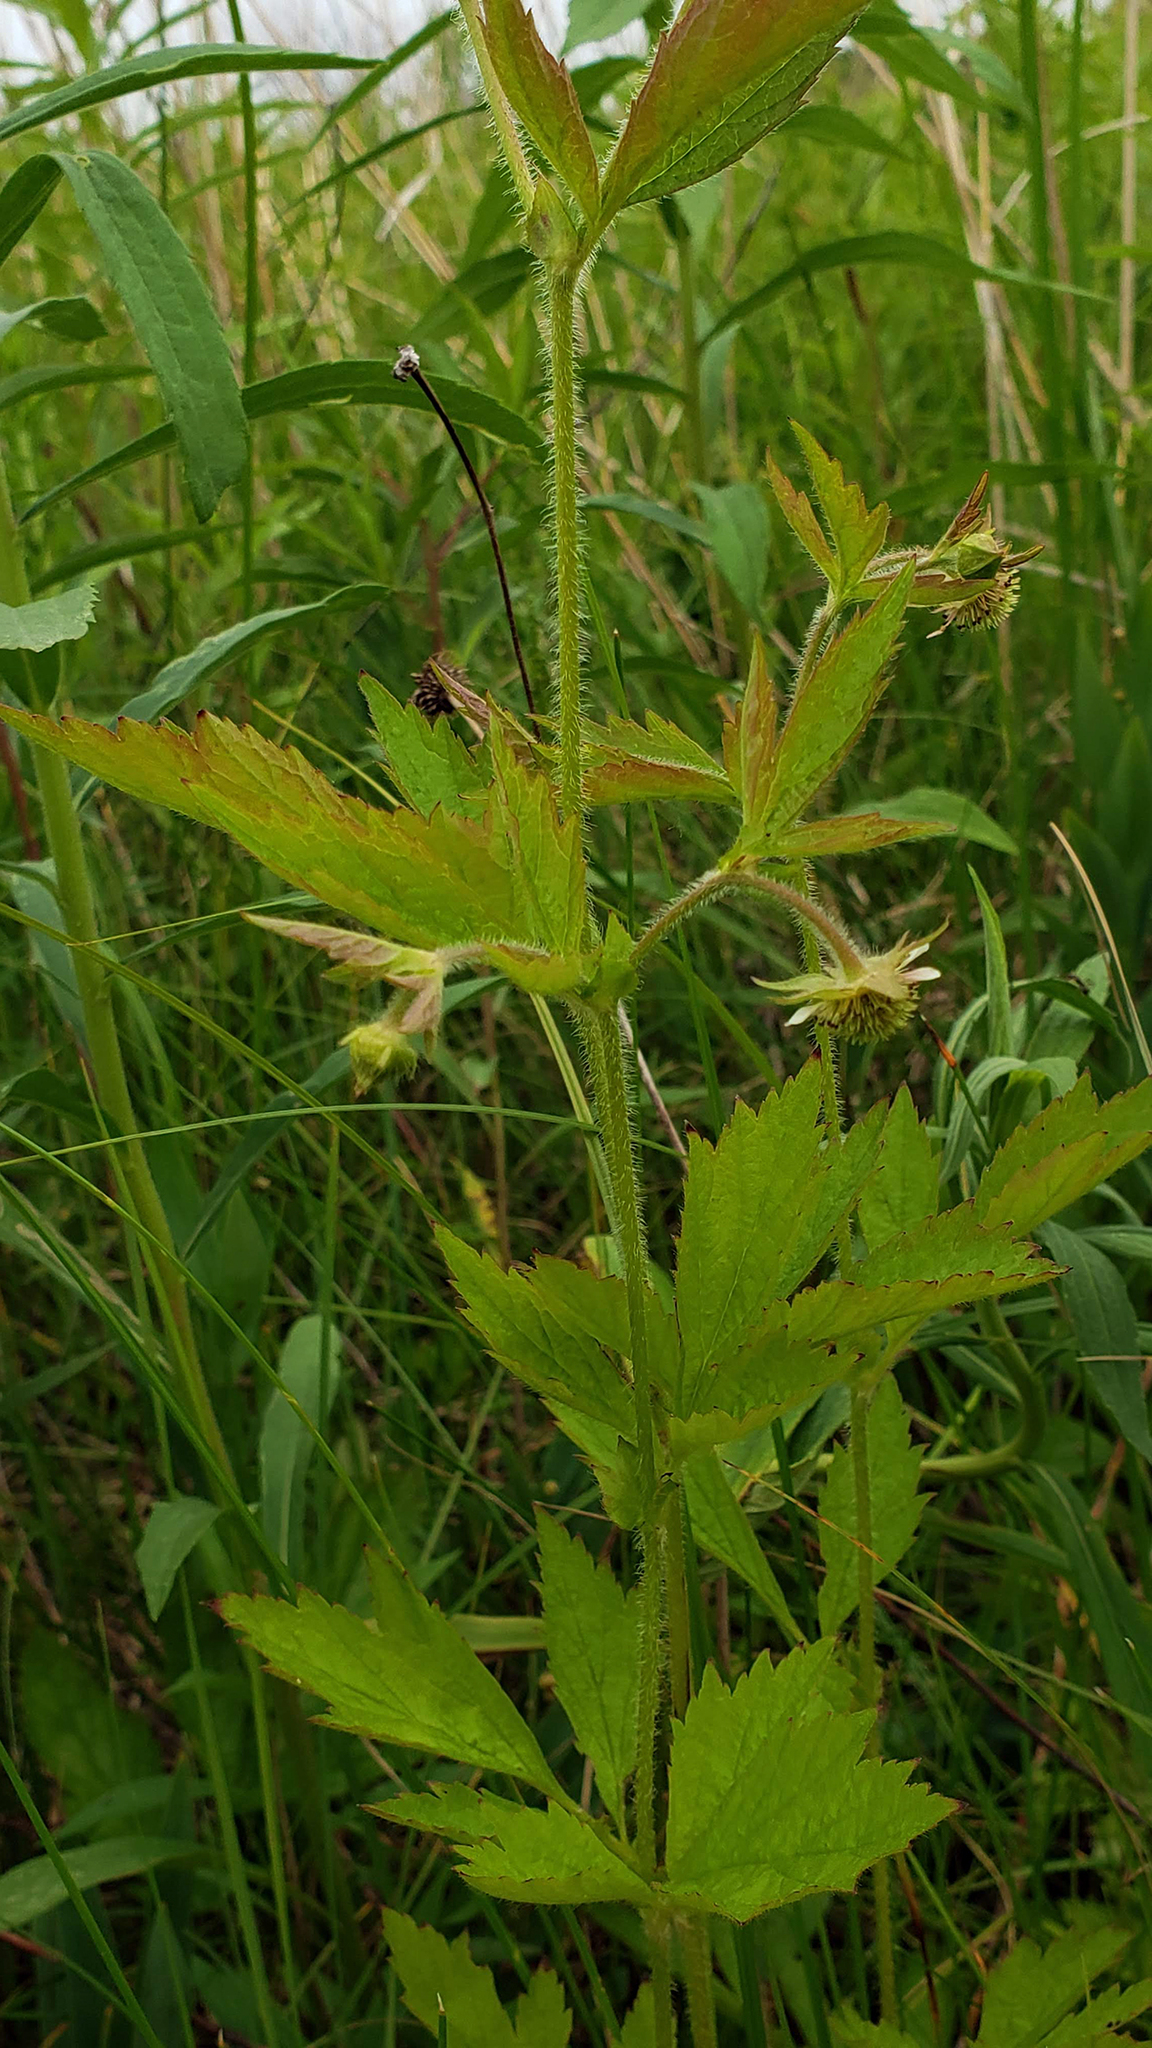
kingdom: Plantae
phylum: Tracheophyta
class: Magnoliopsida
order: Rosales
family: Rosaceae
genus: Geum
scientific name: Geum laciniatum
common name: Rough avens
